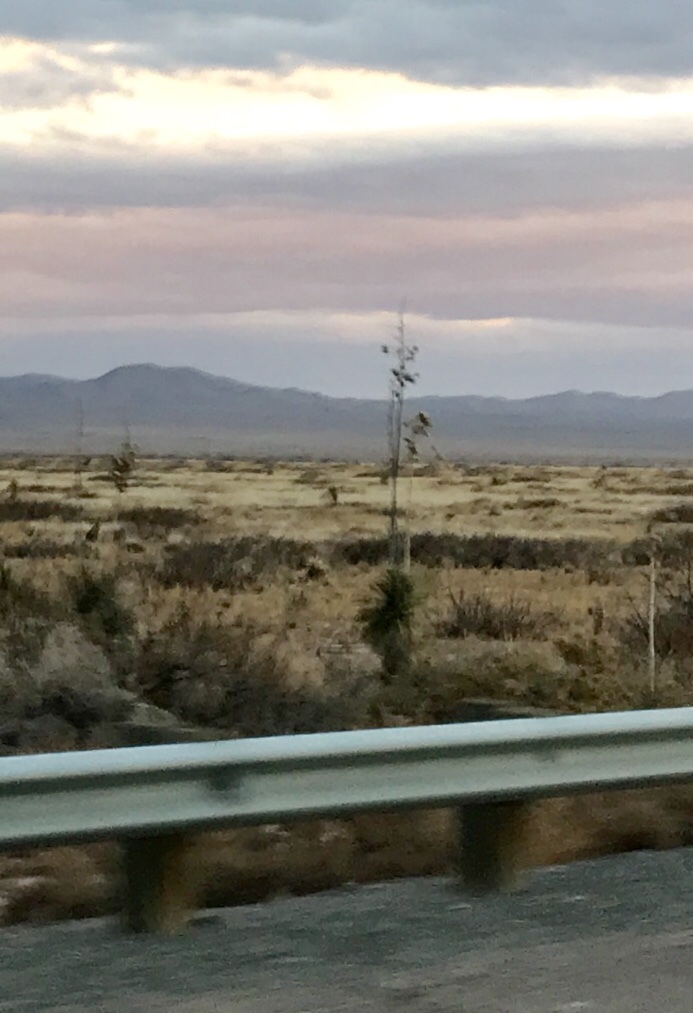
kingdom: Plantae
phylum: Tracheophyta
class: Liliopsida
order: Asparagales
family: Asparagaceae
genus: Yucca
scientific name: Yucca elata
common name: Palmella
